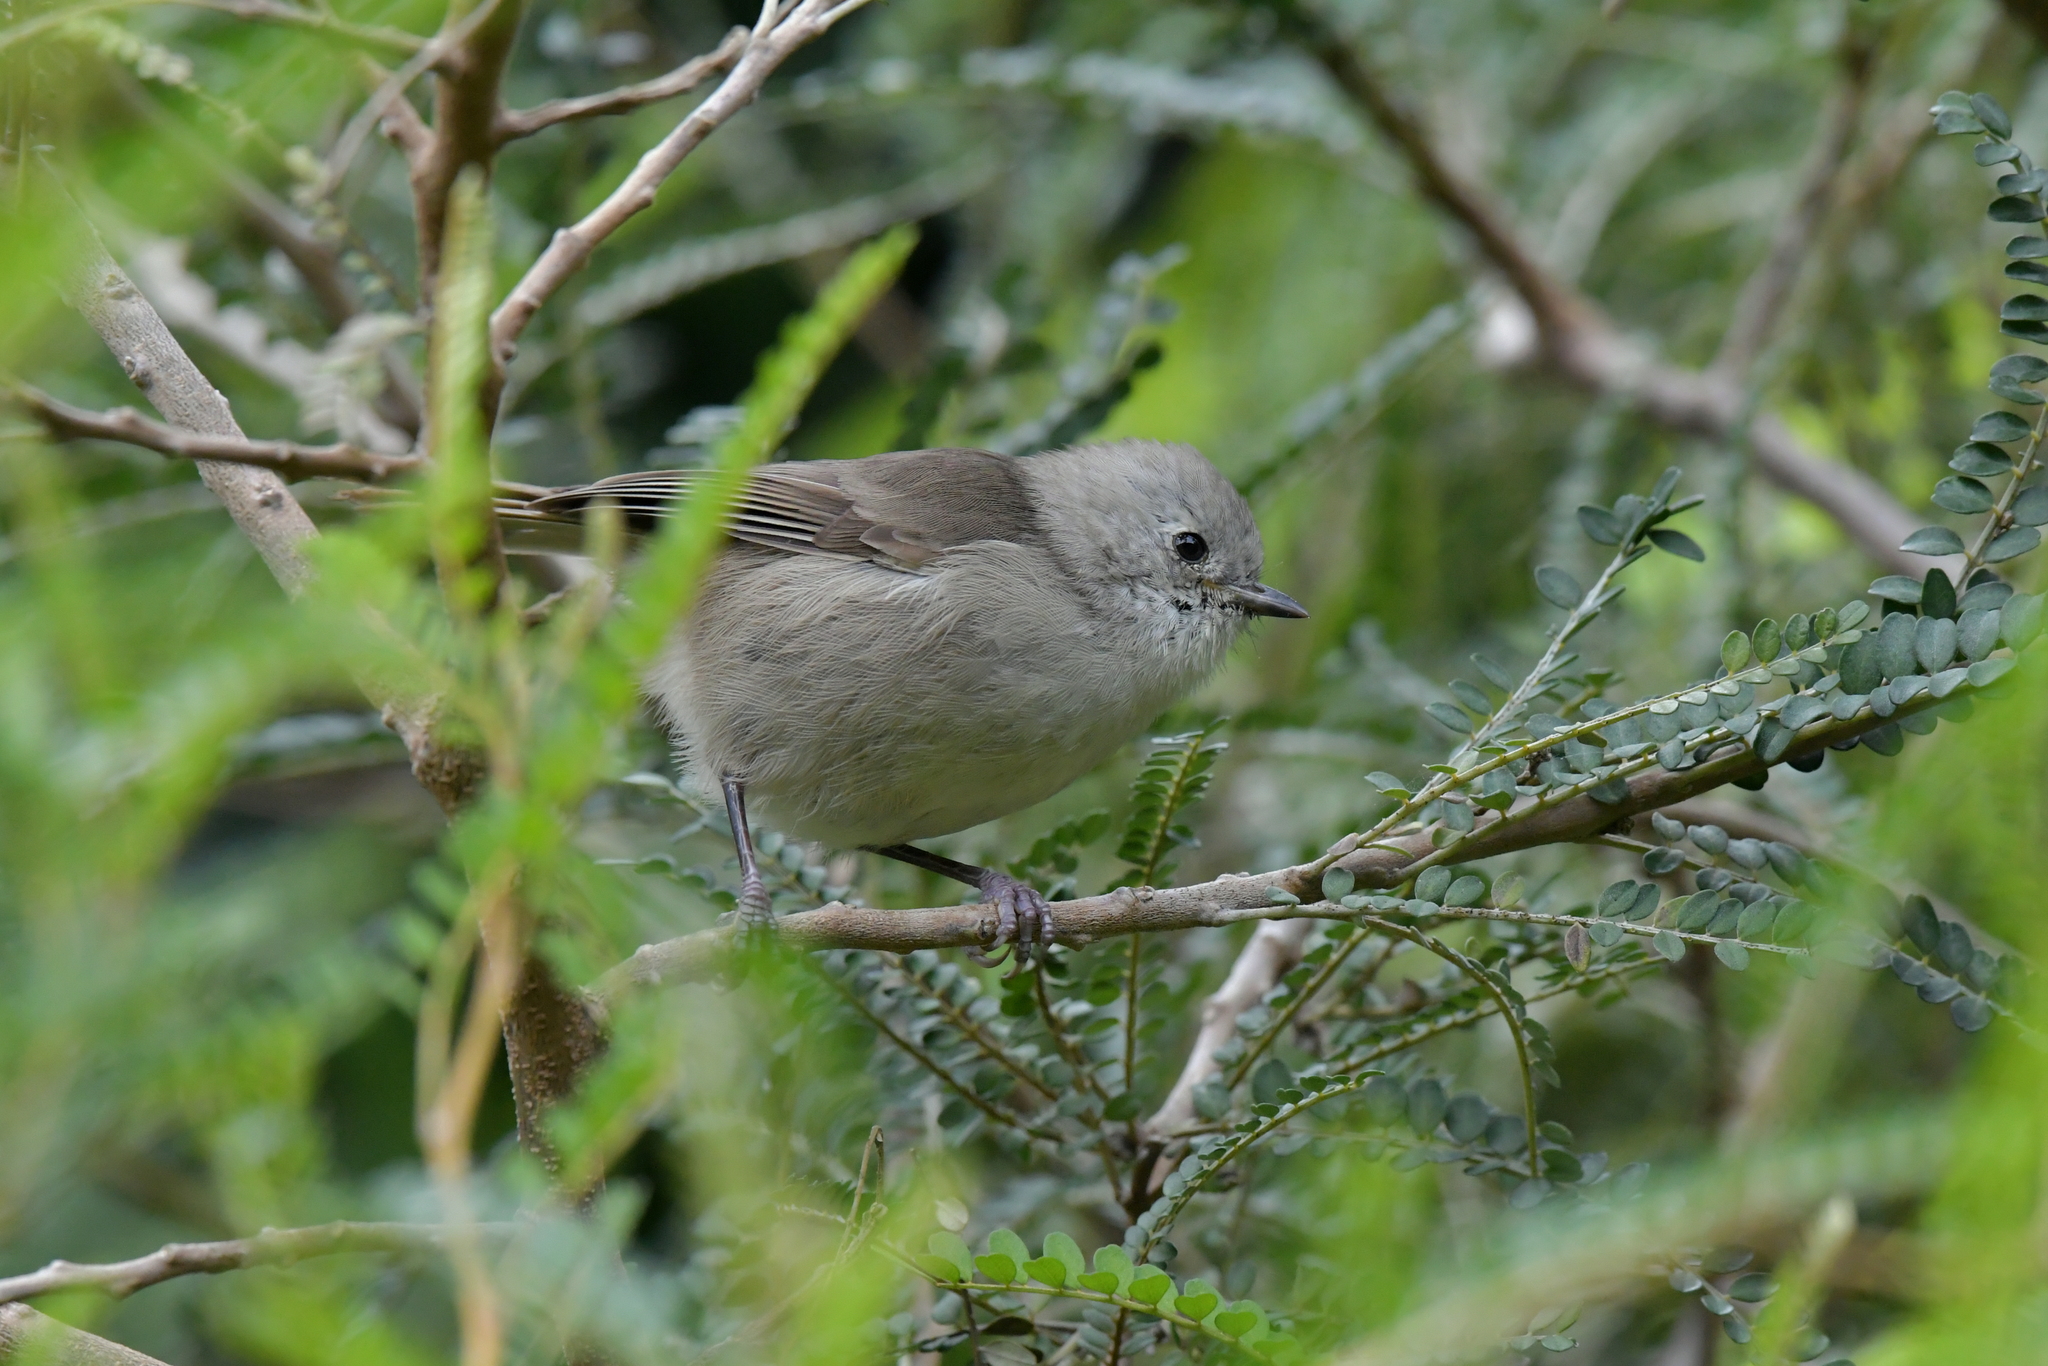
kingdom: Animalia
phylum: Chordata
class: Aves
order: Passeriformes
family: Acanthizidae
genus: Mohoua
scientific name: Mohoua albicilla
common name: Whitehead
